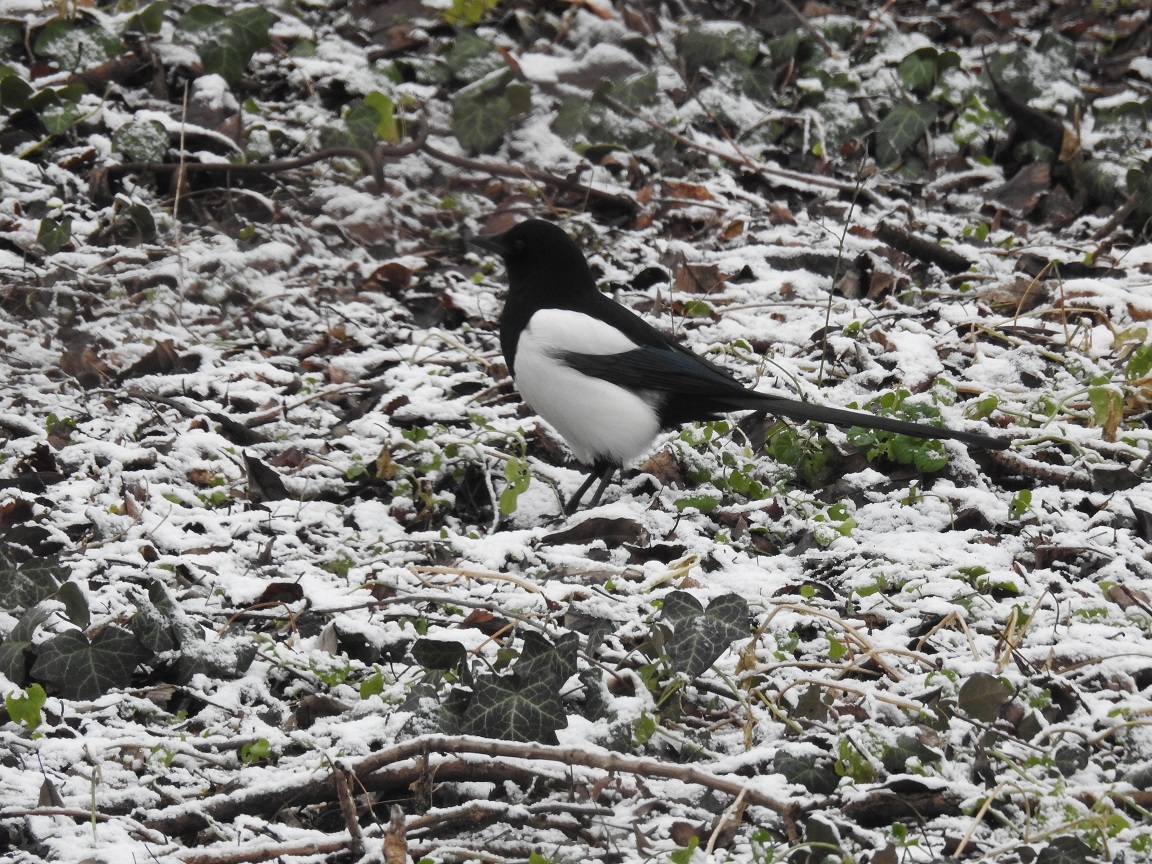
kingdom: Animalia
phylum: Chordata
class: Aves
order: Passeriformes
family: Corvidae
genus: Pica
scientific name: Pica pica
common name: Eurasian magpie
